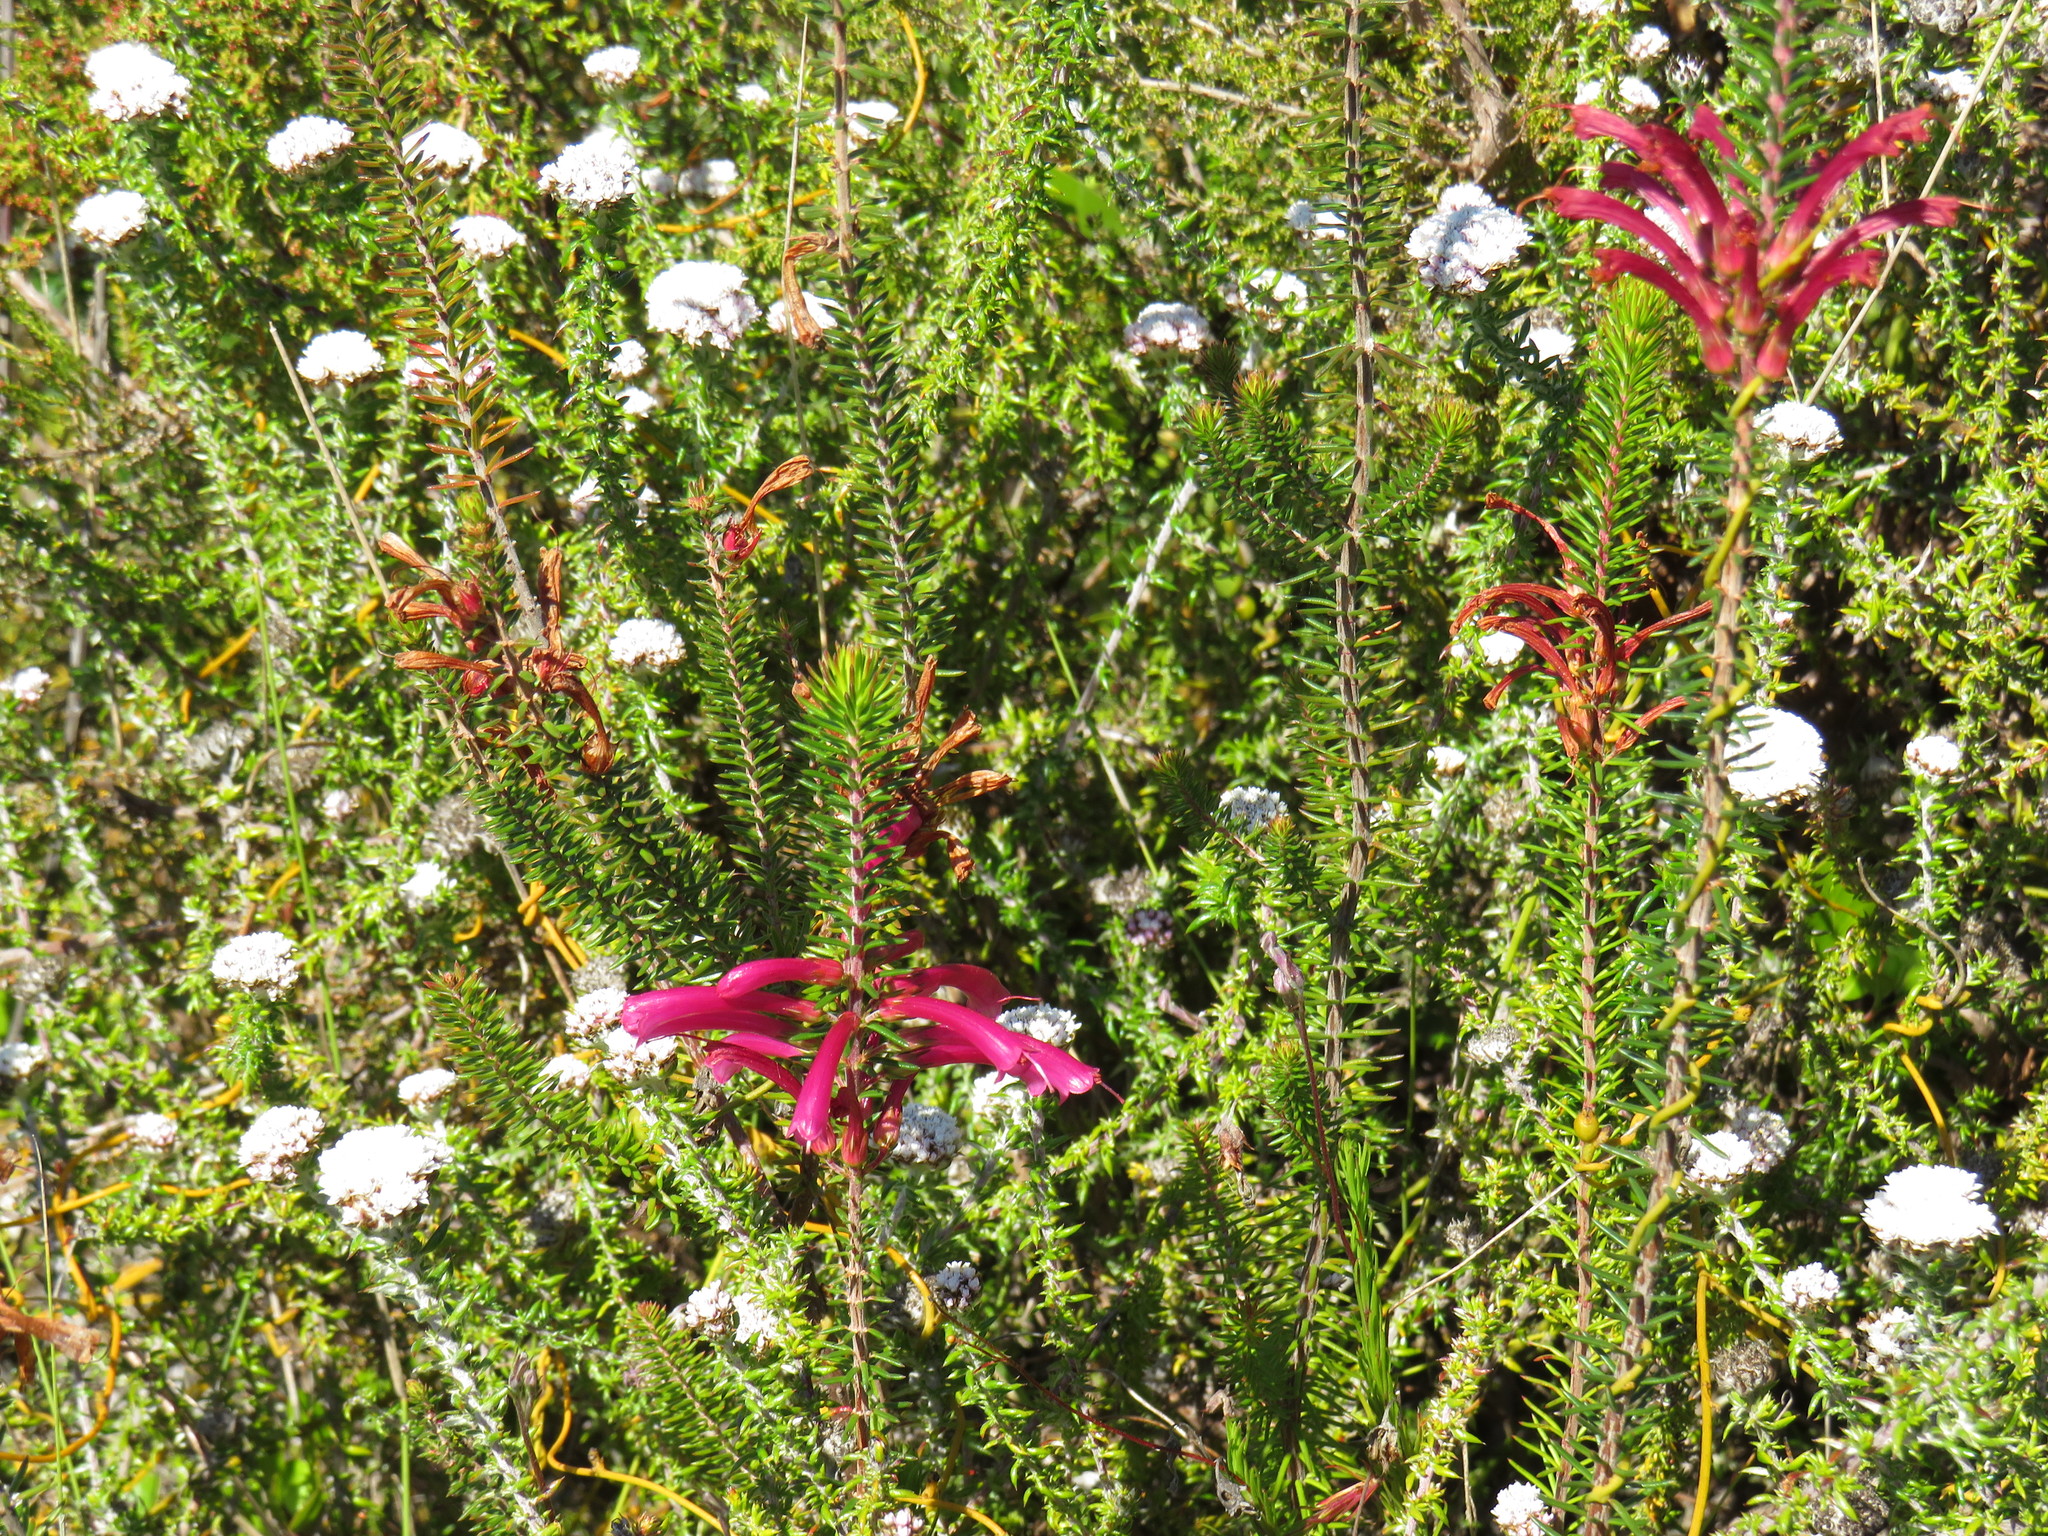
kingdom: Plantae
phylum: Tracheophyta
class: Magnoliopsida
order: Ericales
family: Ericaceae
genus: Erica
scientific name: Erica abietina
